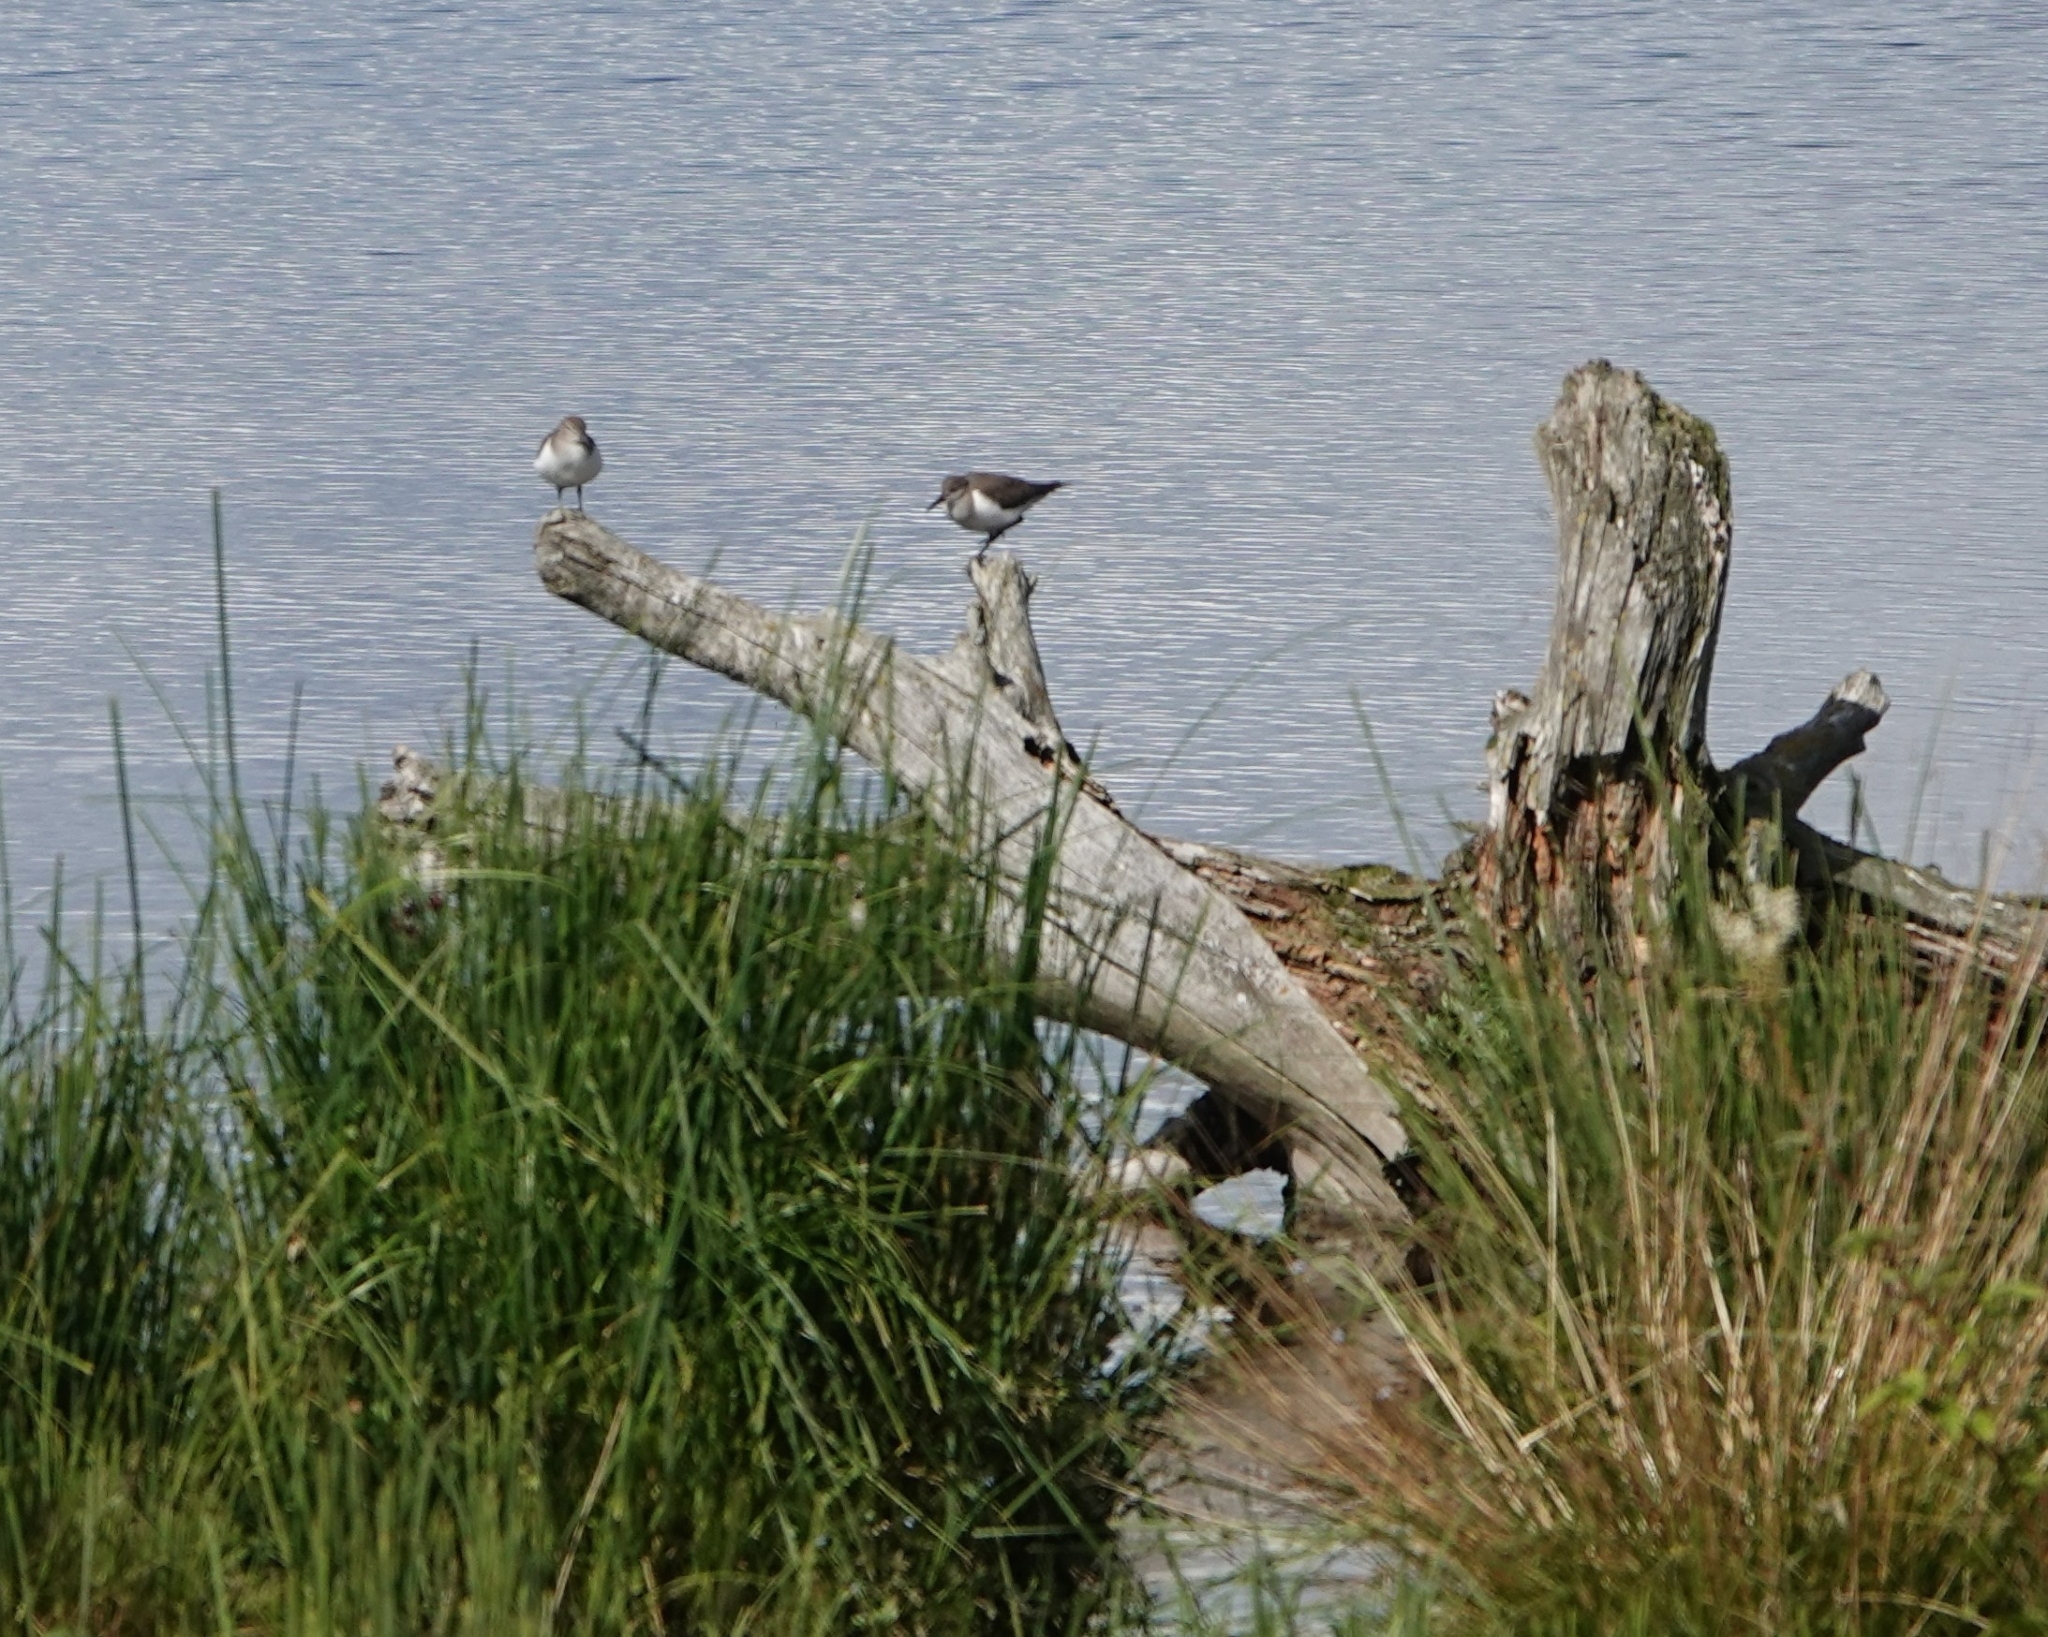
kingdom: Animalia
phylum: Chordata
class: Aves
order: Charadriiformes
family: Scolopacidae
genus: Actitis
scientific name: Actitis hypoleucos
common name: Common sandpiper
